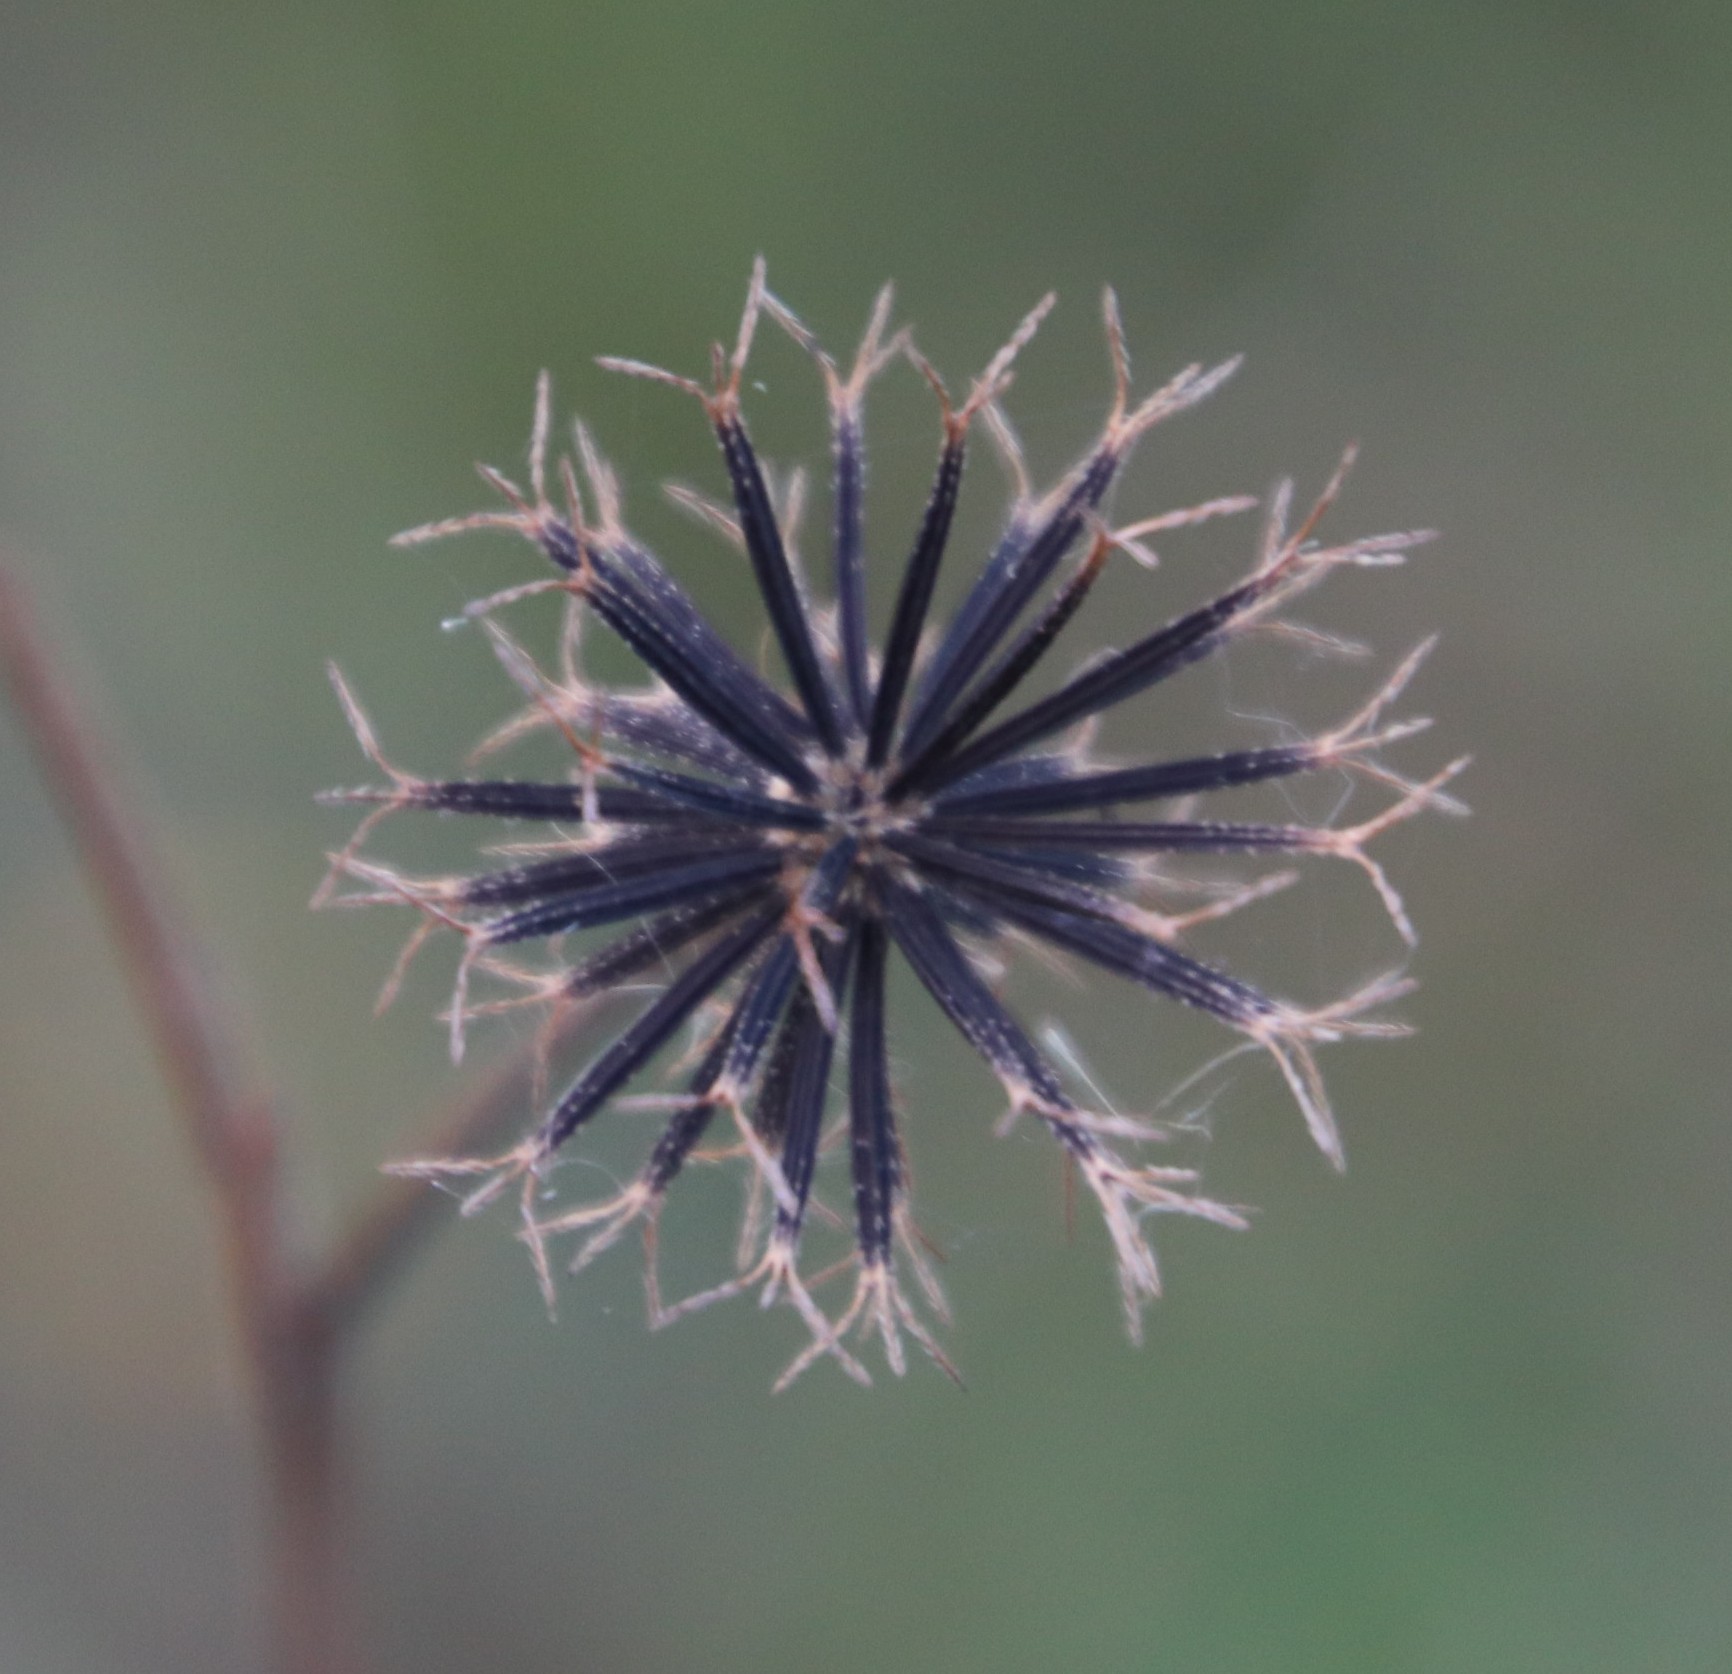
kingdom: Plantae
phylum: Tracheophyta
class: Magnoliopsida
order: Asterales
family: Asteraceae
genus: Bidens
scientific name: Bidens pilosa
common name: Black-jack
